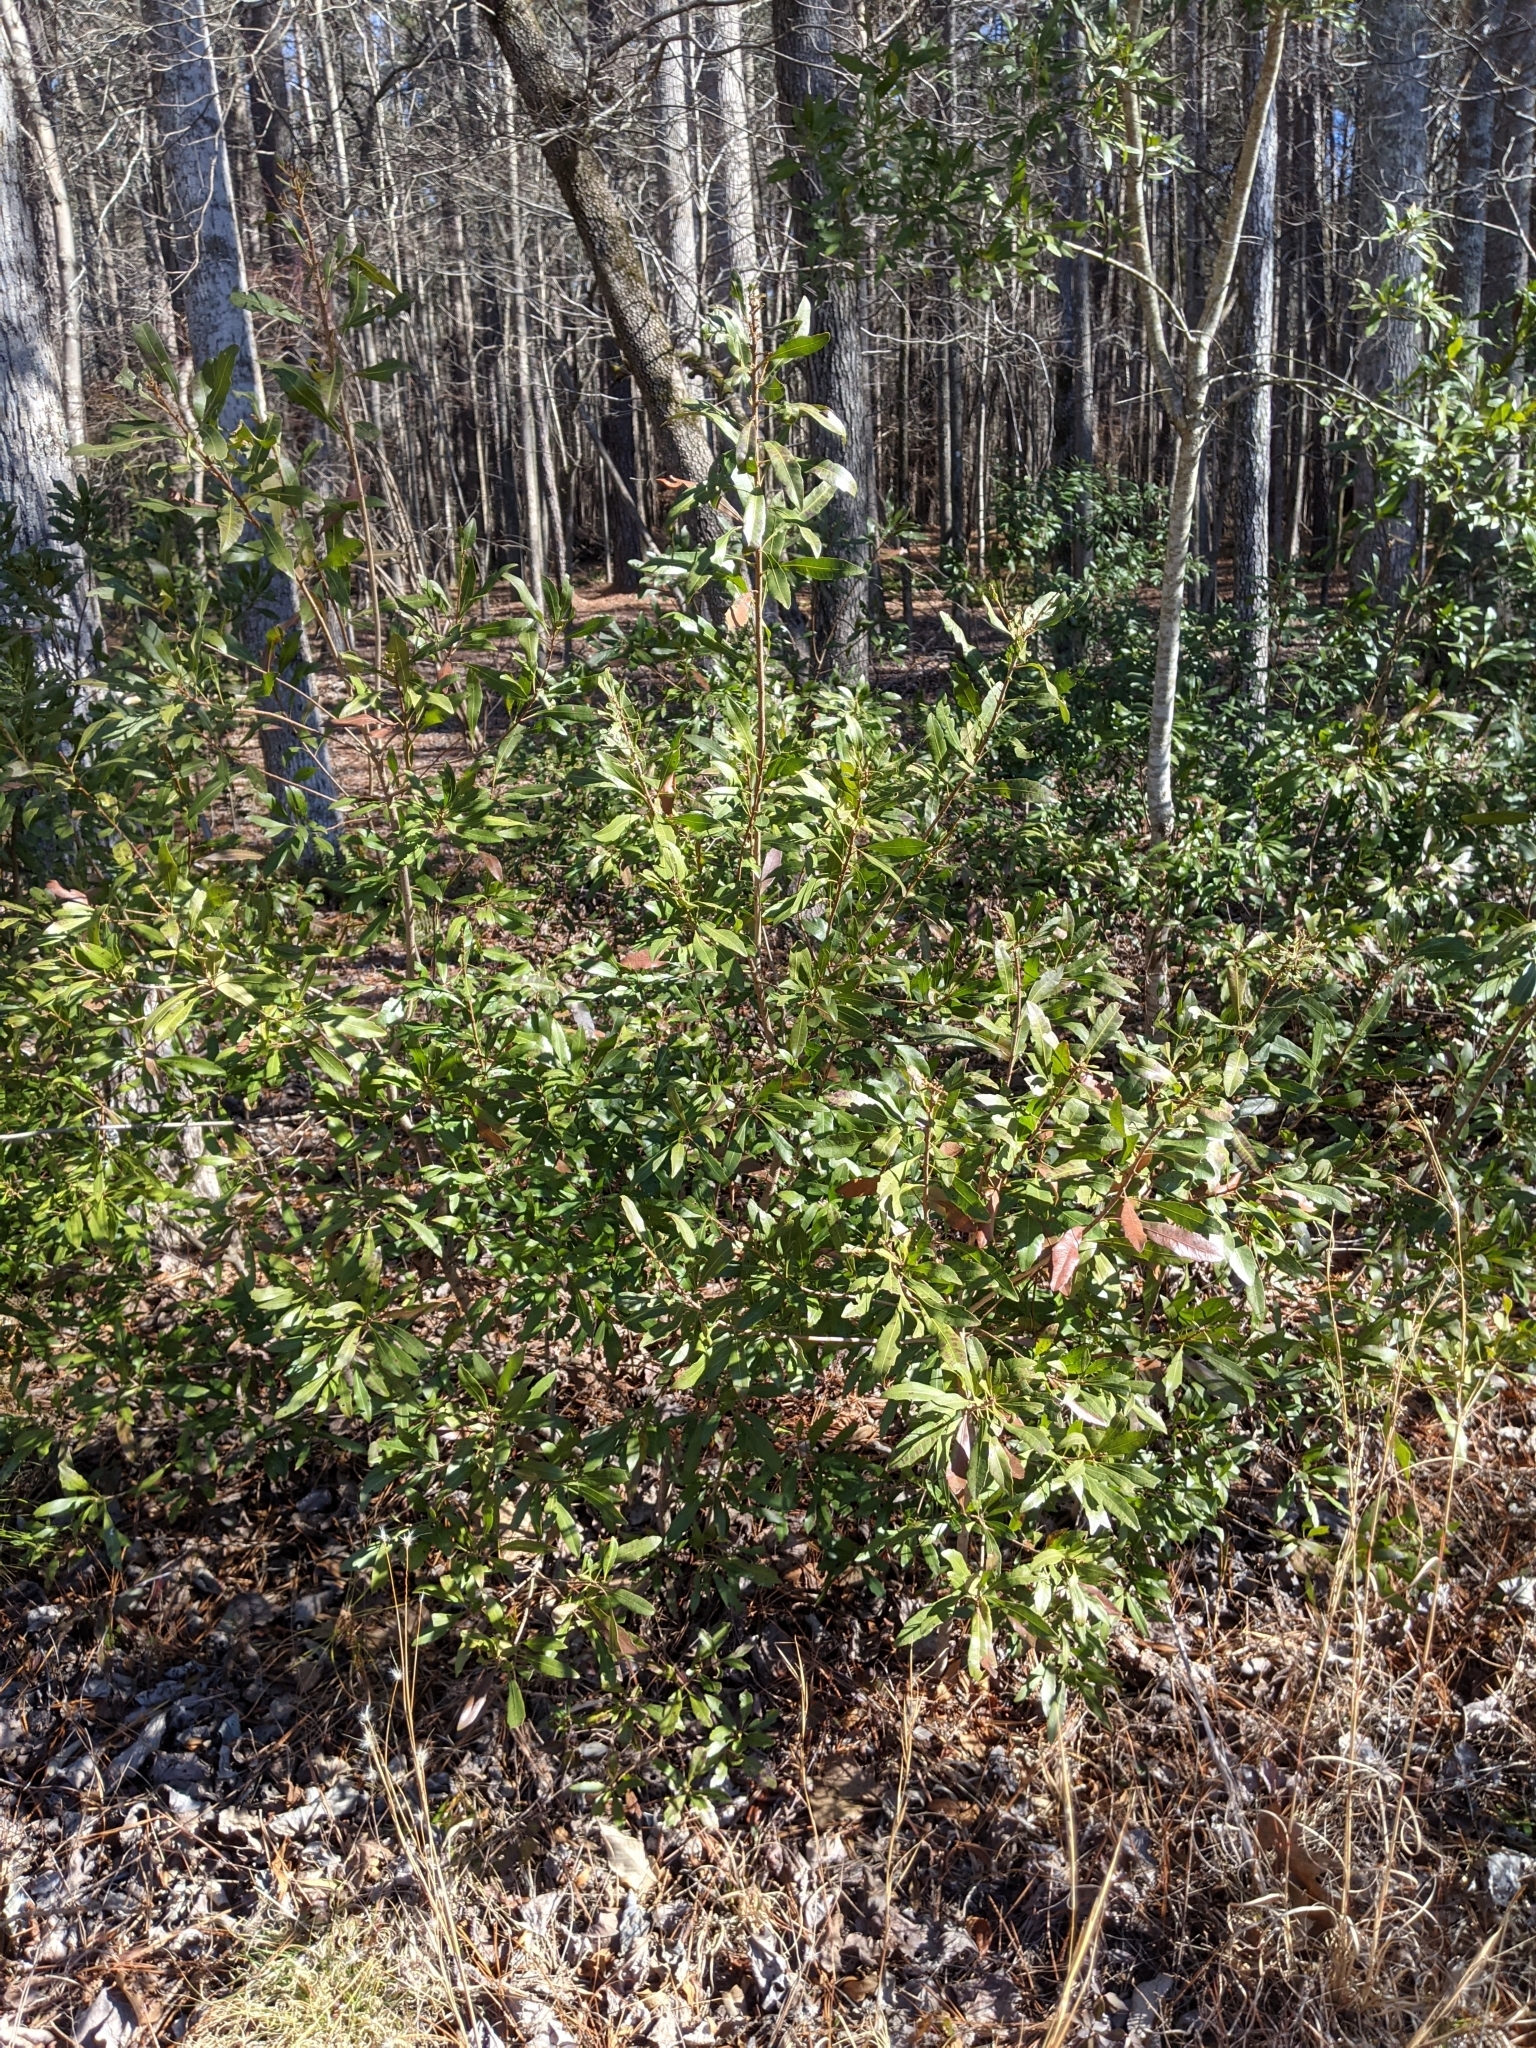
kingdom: Plantae
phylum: Tracheophyta
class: Magnoliopsida
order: Fagales
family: Myricaceae
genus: Morella
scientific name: Morella cerifera
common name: Wax myrtle
